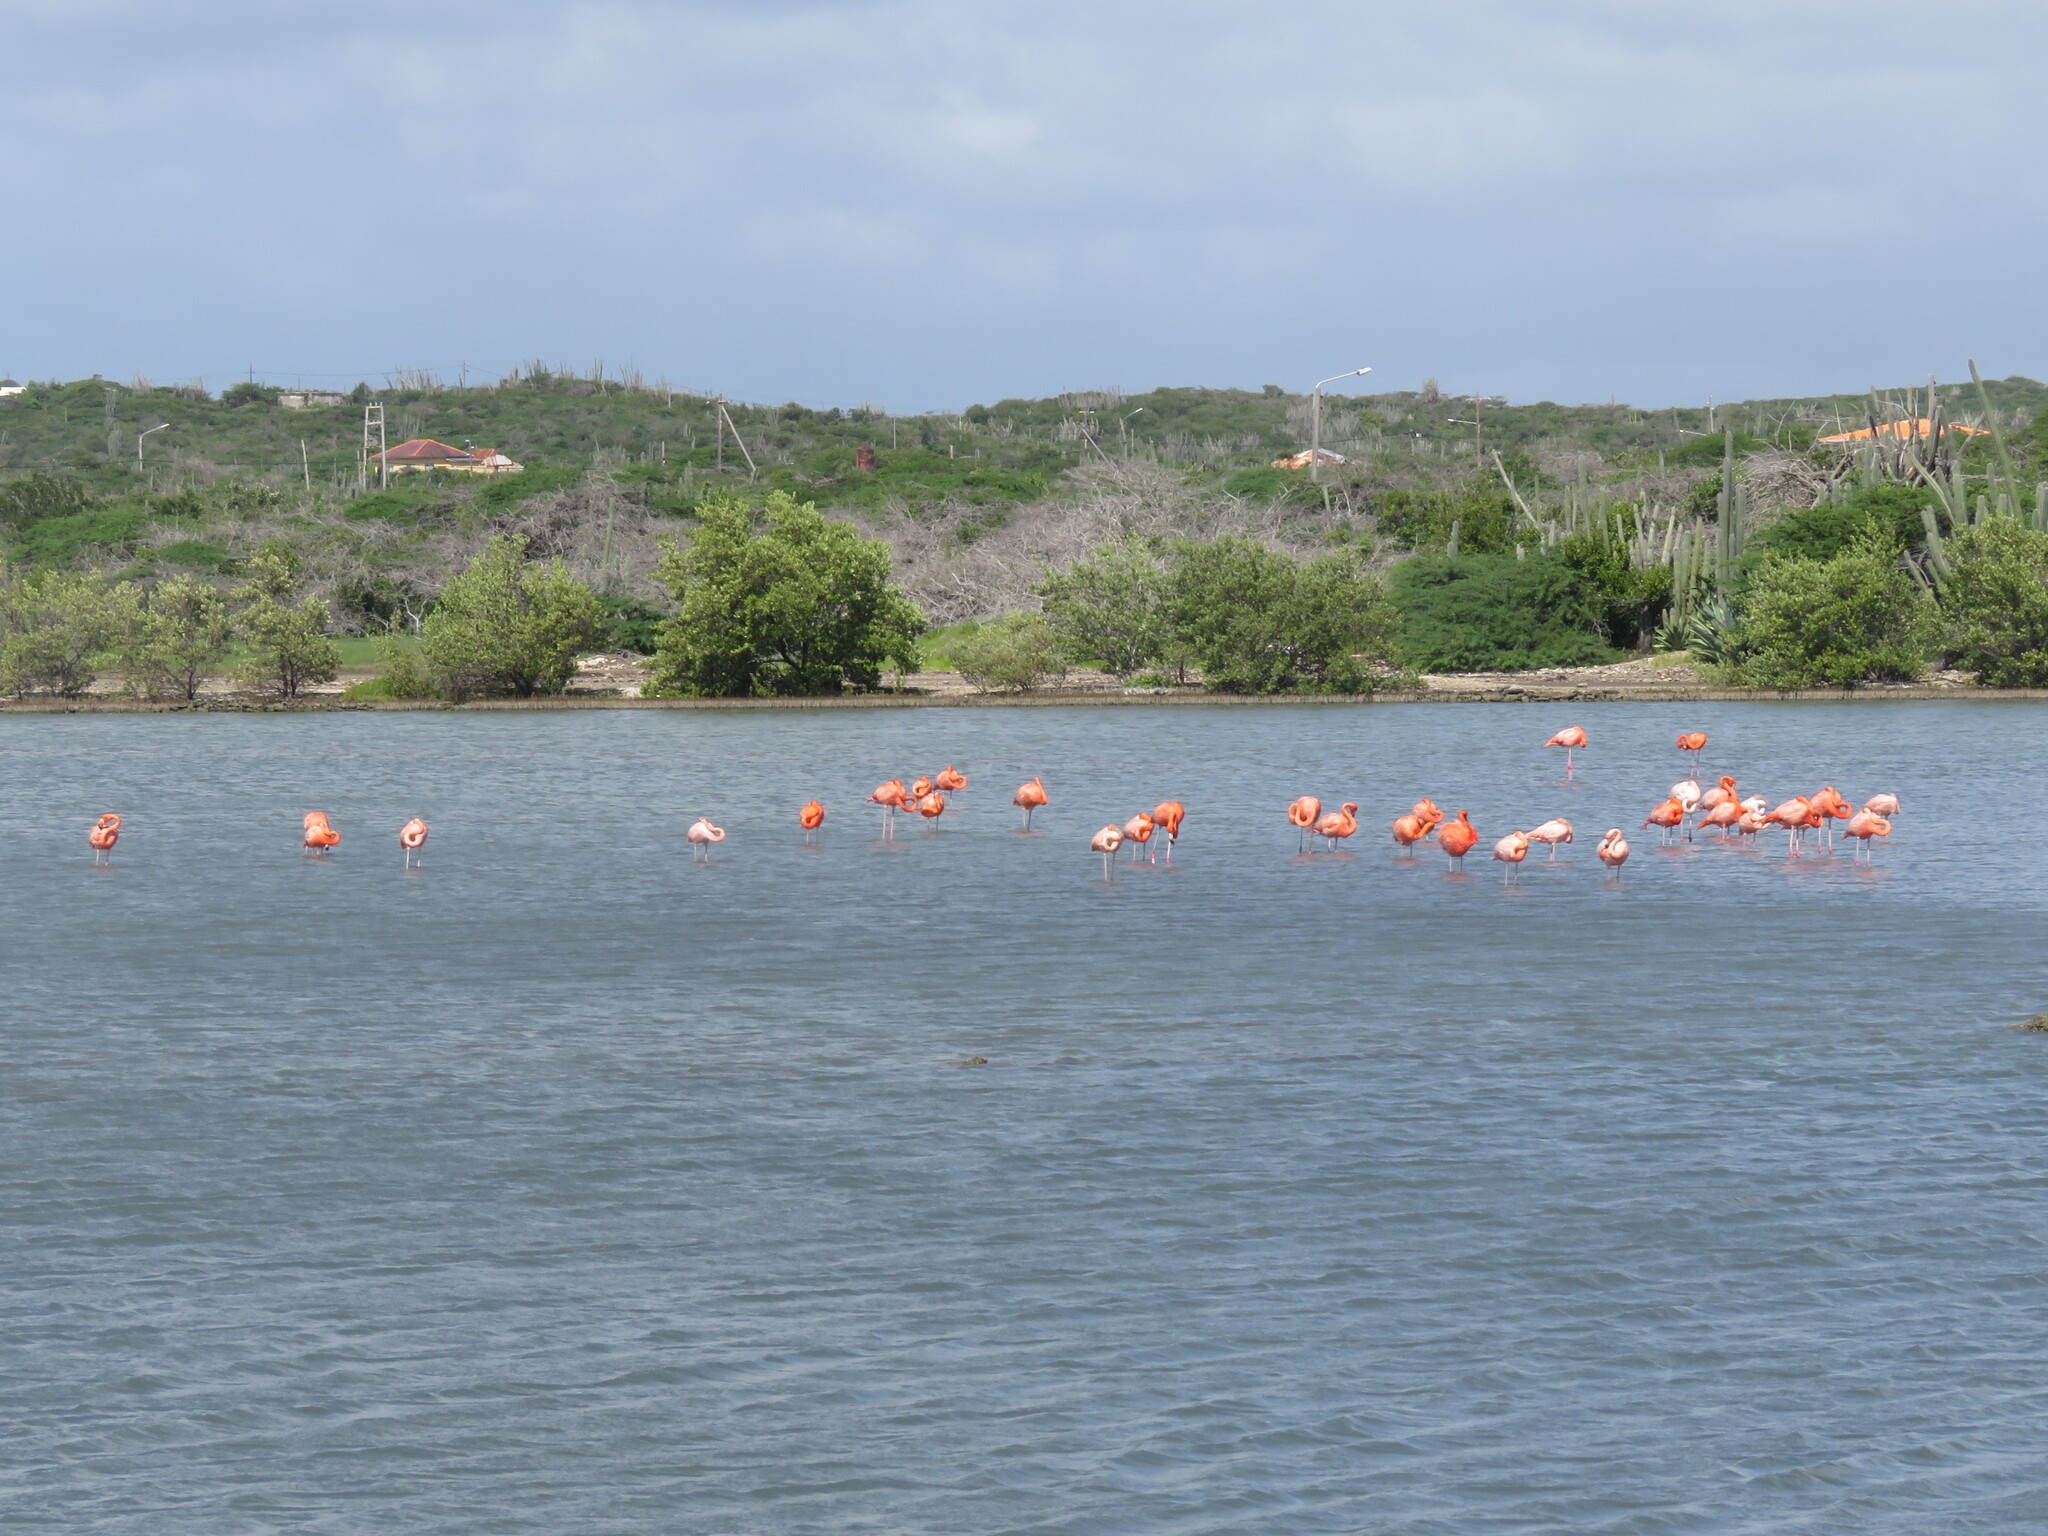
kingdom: Animalia
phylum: Chordata
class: Aves
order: Phoenicopteriformes
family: Phoenicopteridae
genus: Phoenicopterus
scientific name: Phoenicopterus ruber
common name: American flamingo
